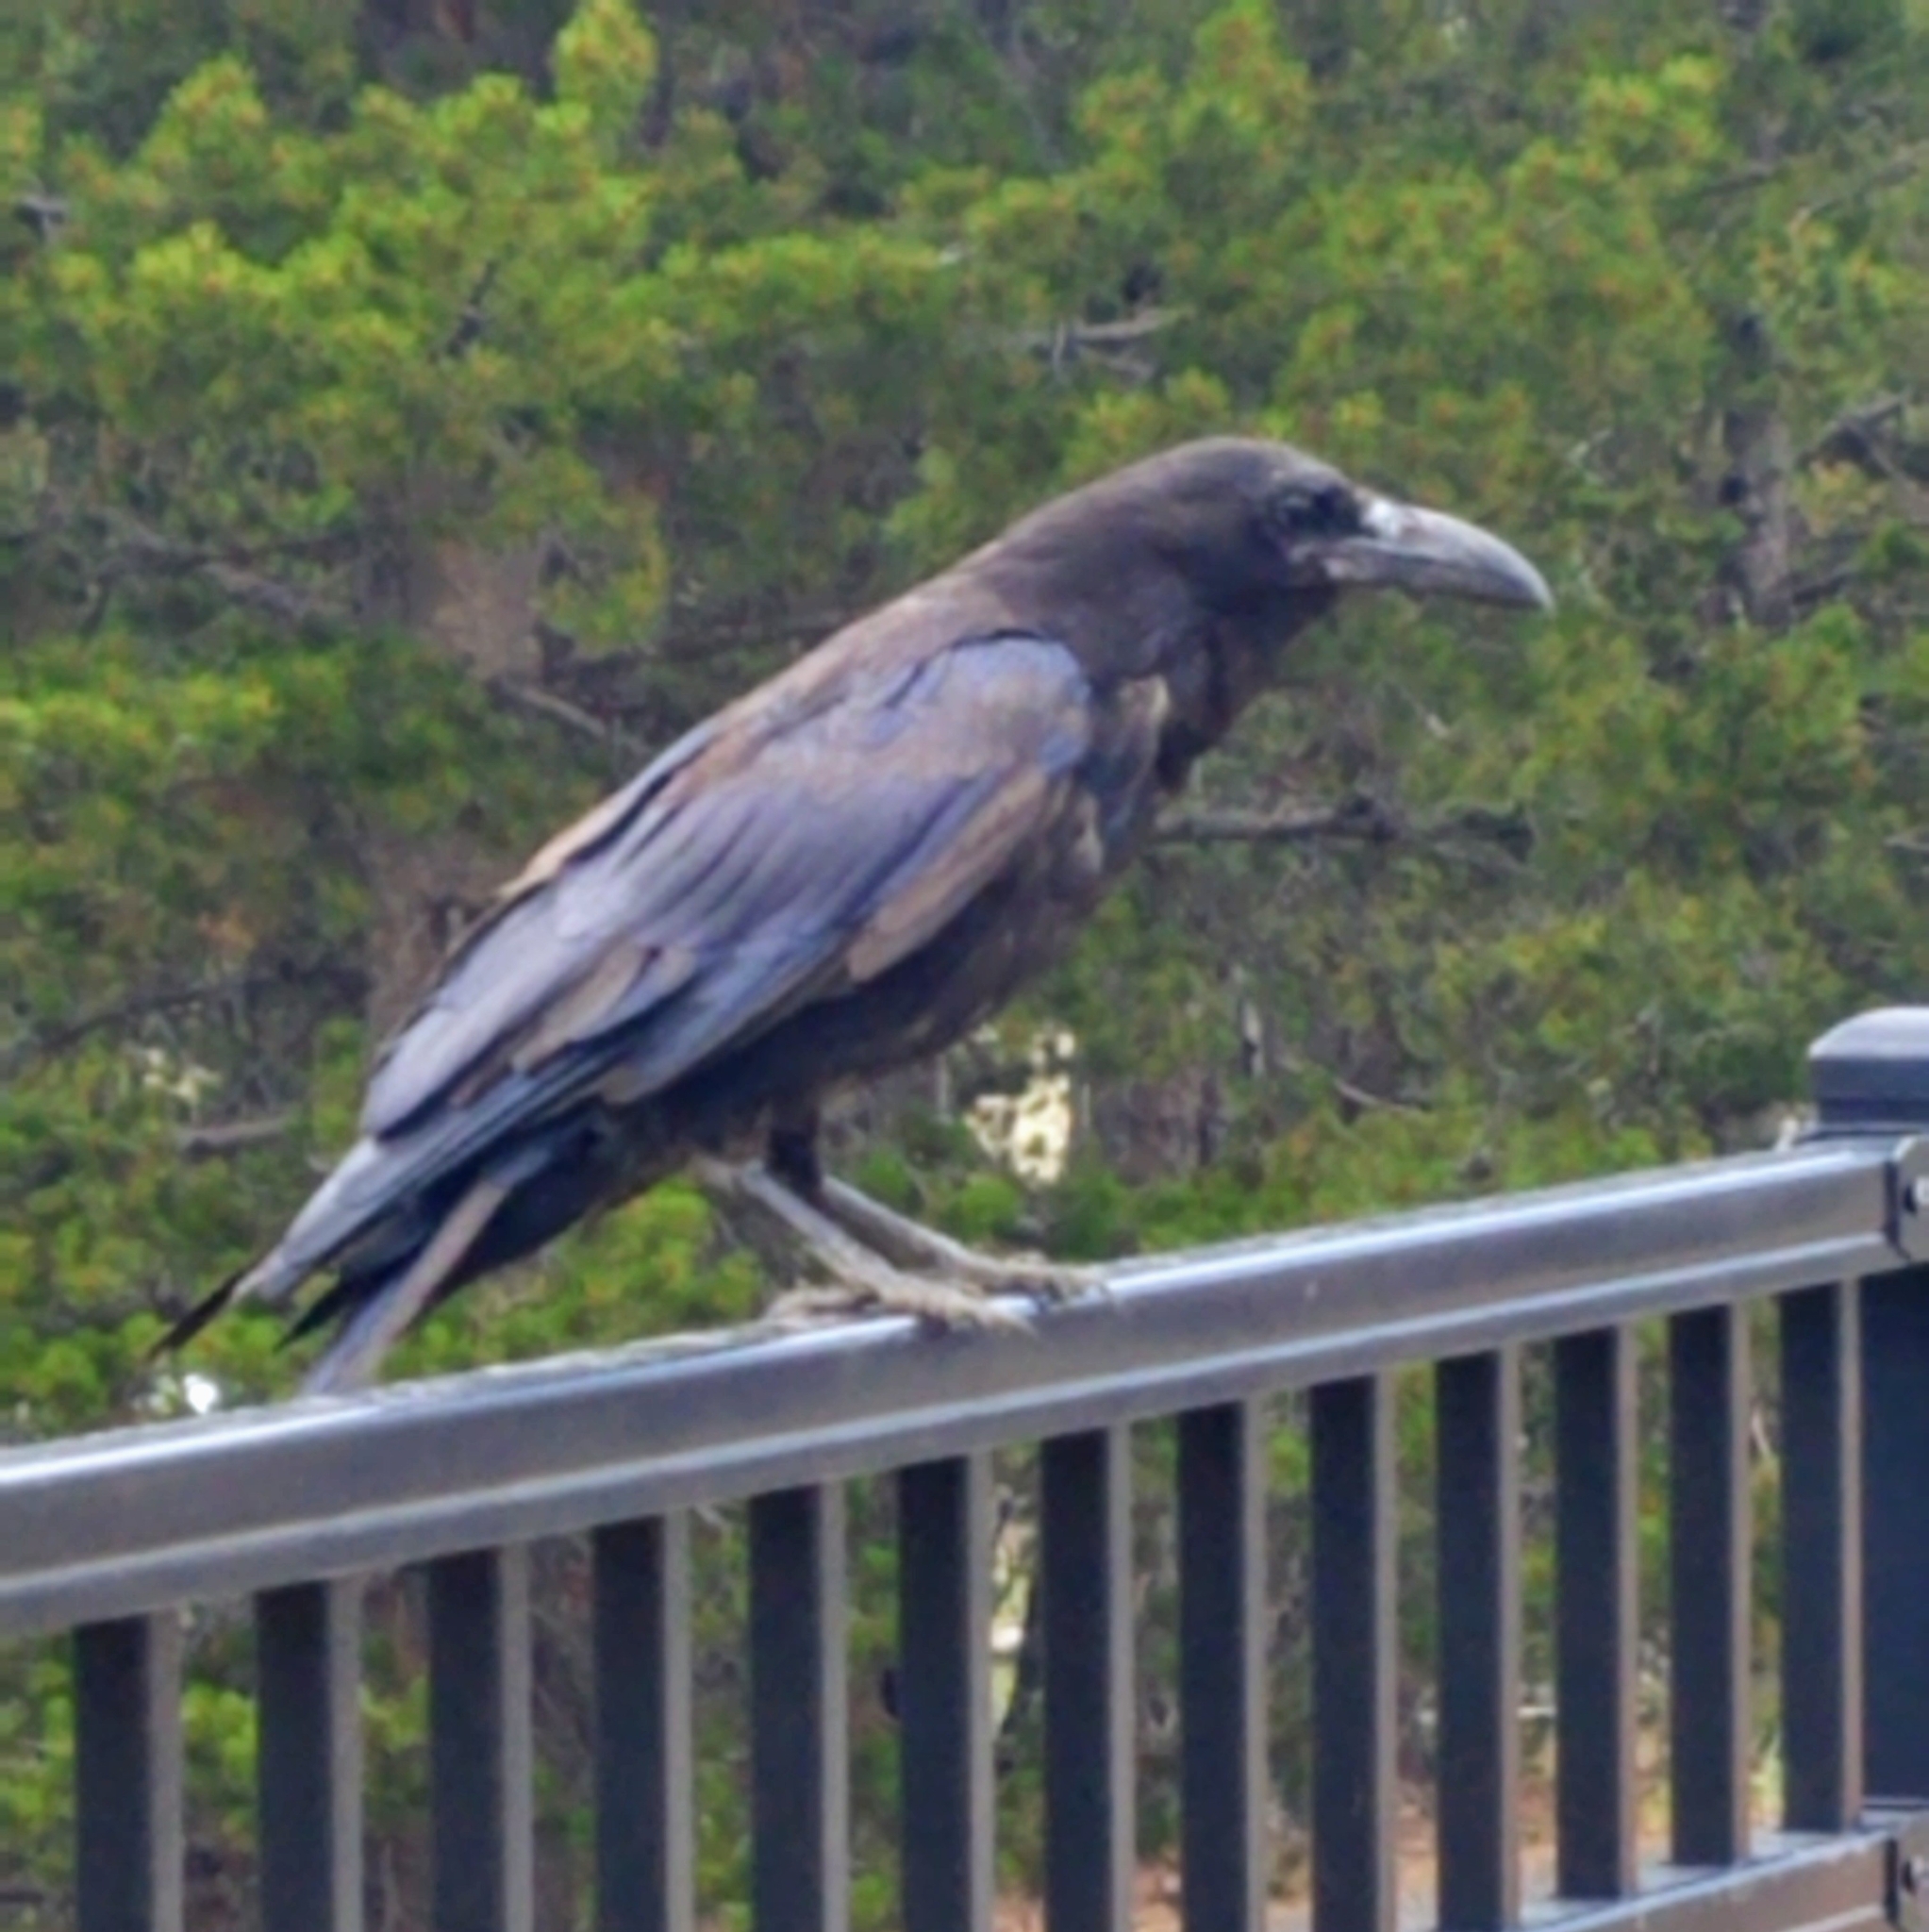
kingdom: Animalia
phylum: Chordata
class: Aves
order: Passeriformes
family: Corvidae
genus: Corvus
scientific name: Corvus corax
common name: Common raven
